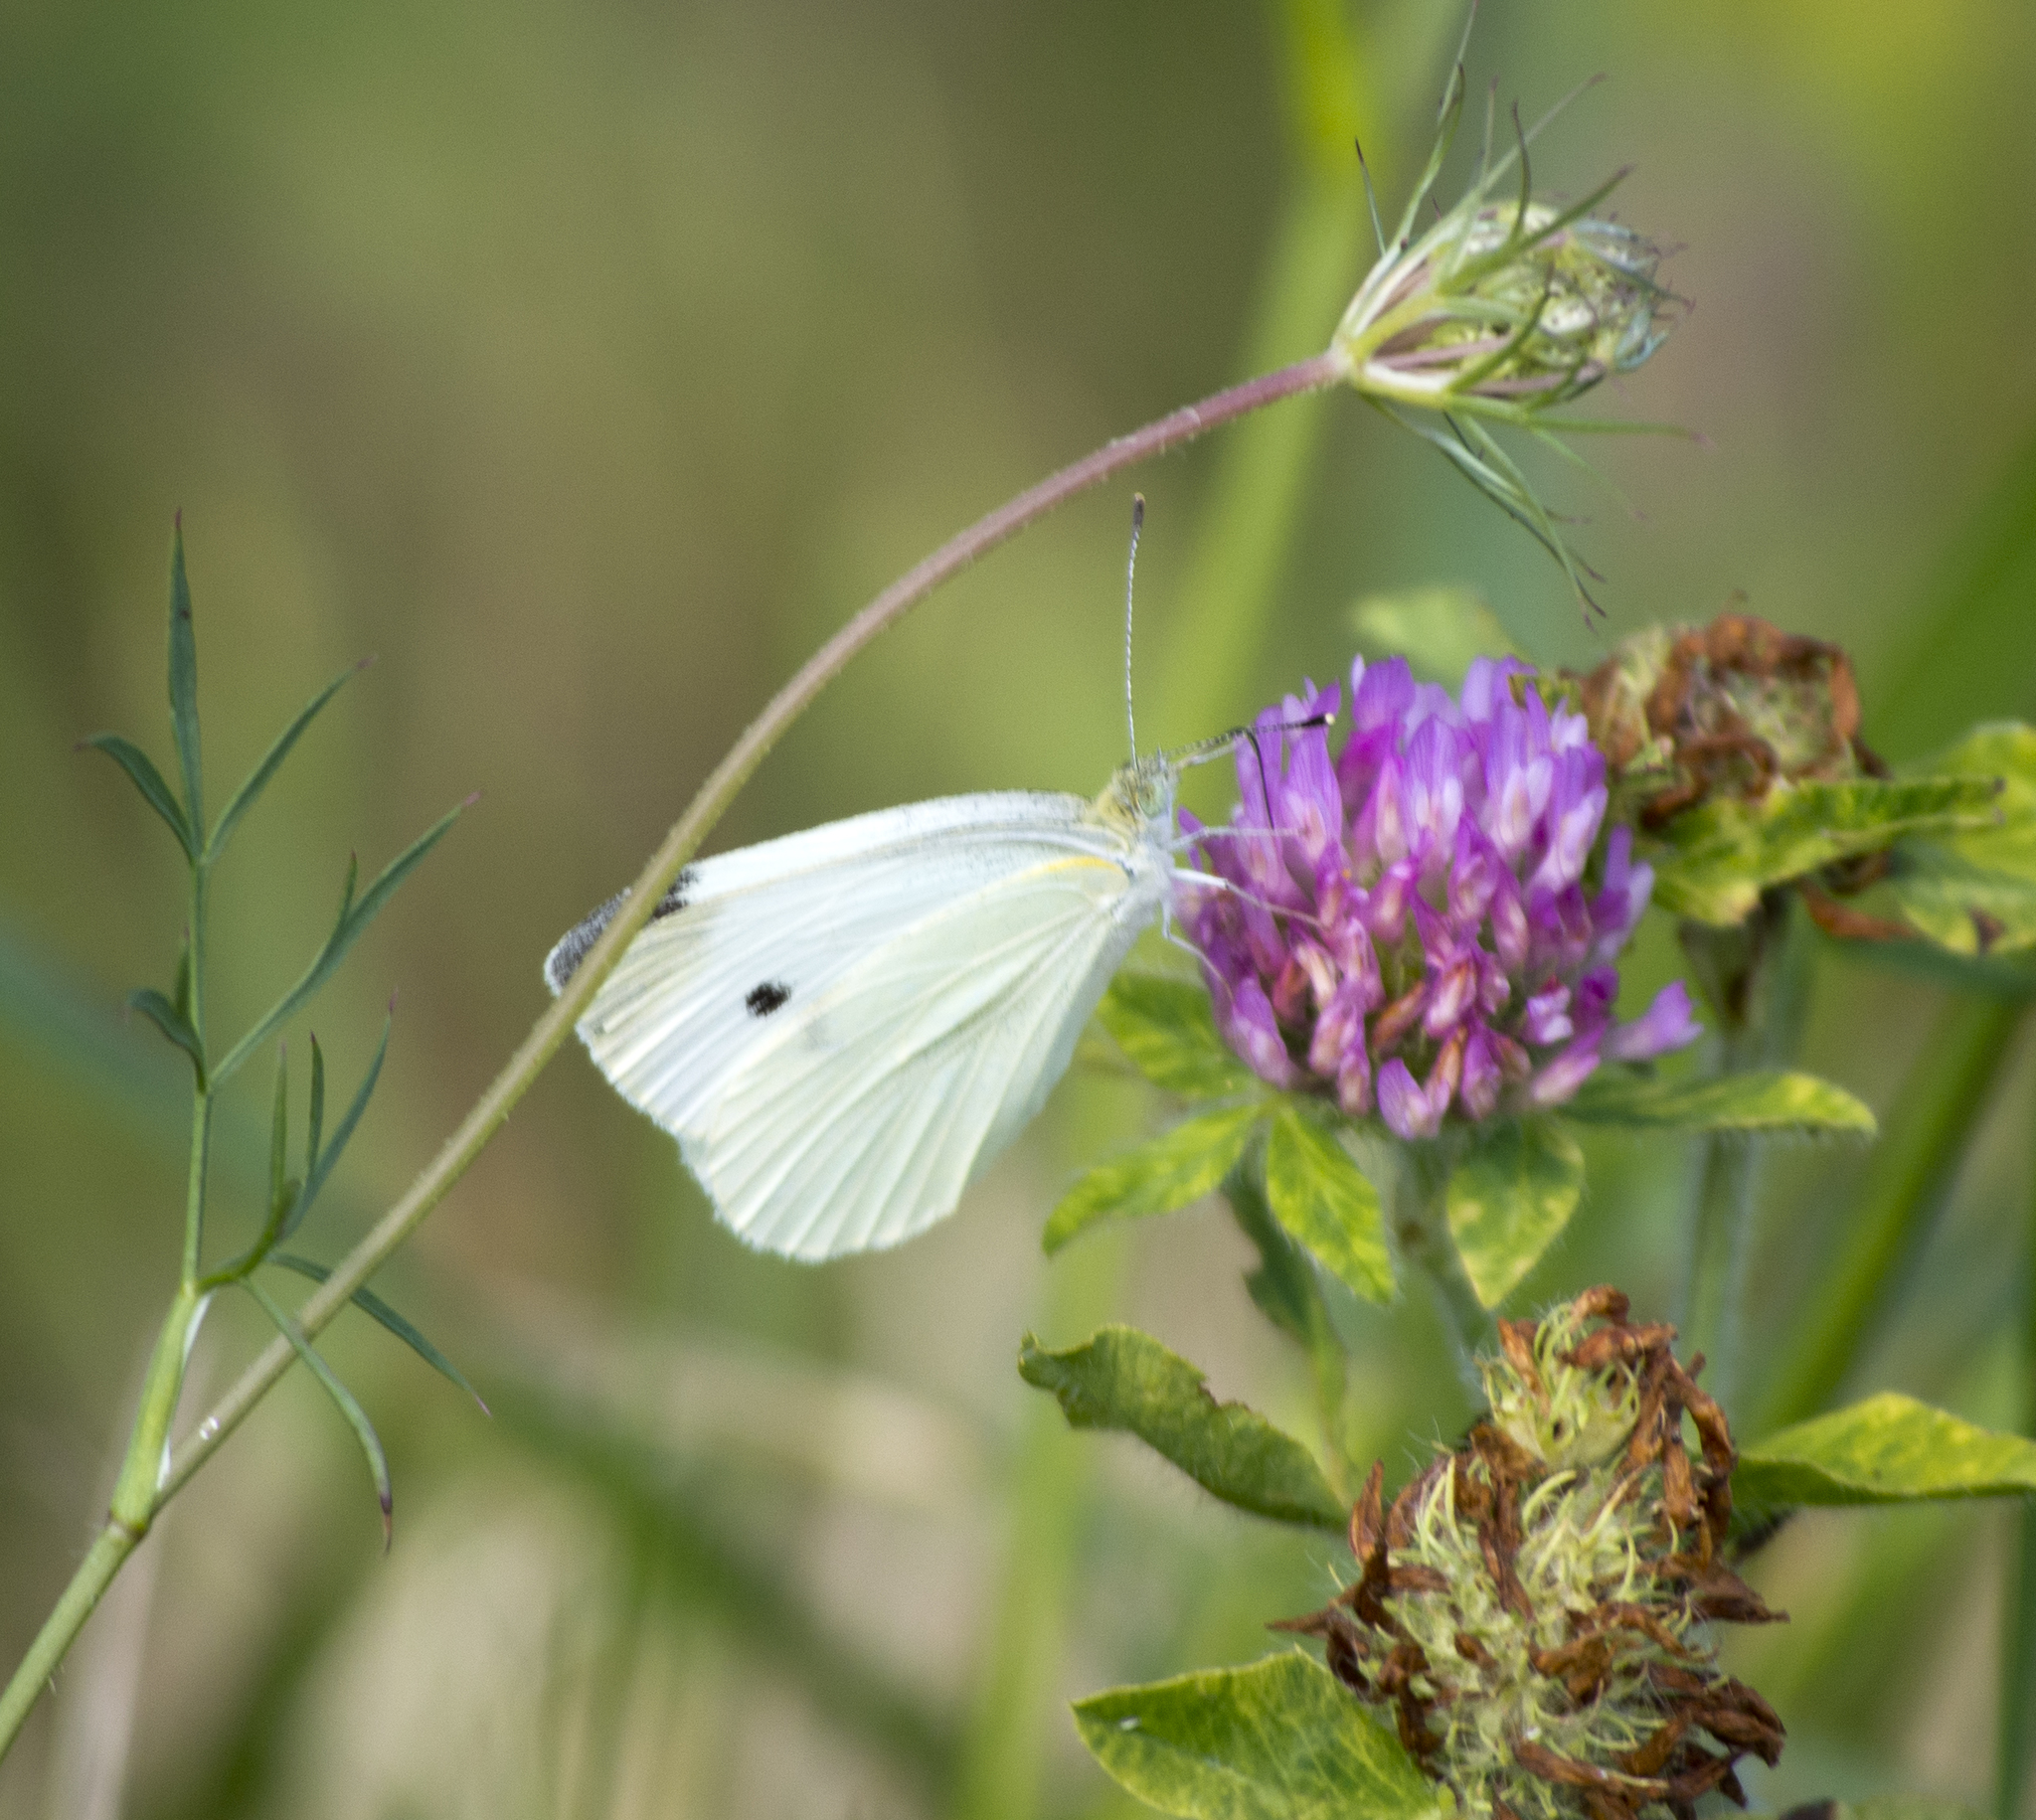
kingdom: Animalia
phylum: Arthropoda
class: Insecta
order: Lepidoptera
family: Pieridae
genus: Pieris
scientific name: Pieris rapae
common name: Small white
